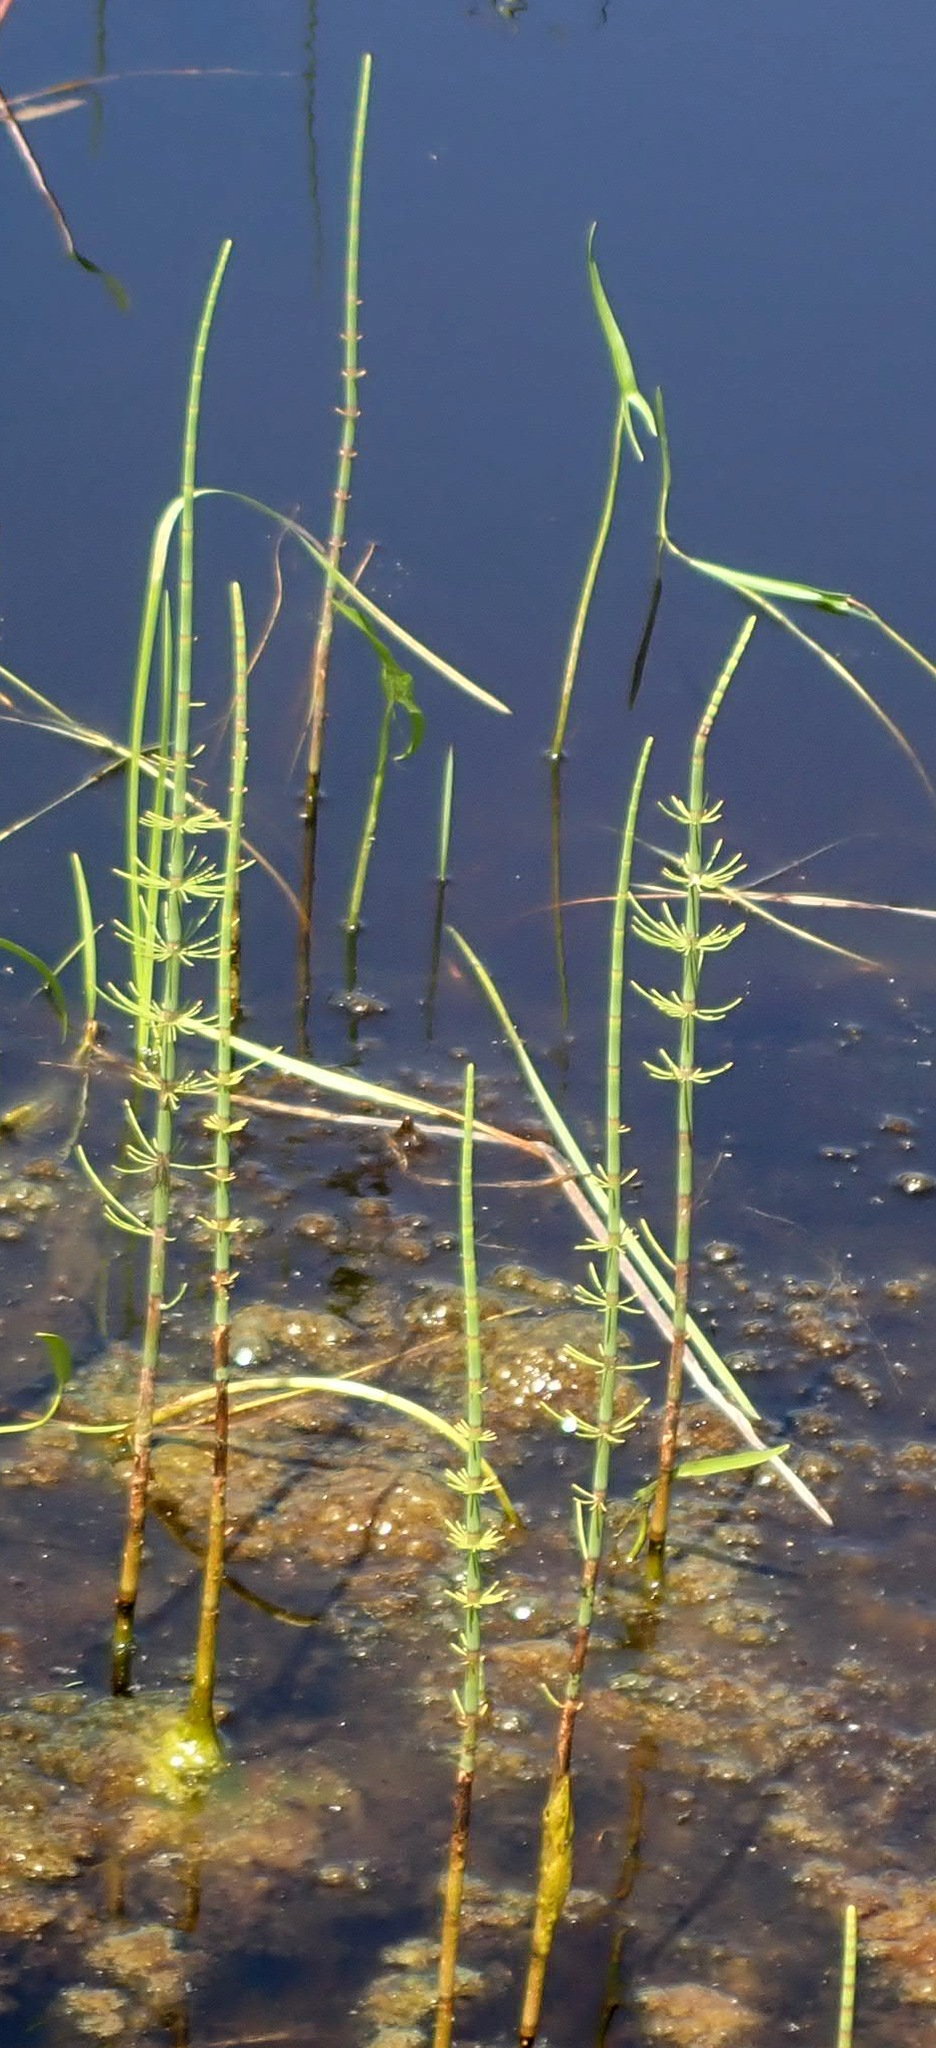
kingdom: Plantae
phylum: Tracheophyta
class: Polypodiopsida
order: Equisetales
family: Equisetaceae
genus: Equisetum
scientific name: Equisetum fluviatile
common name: Water horsetail
